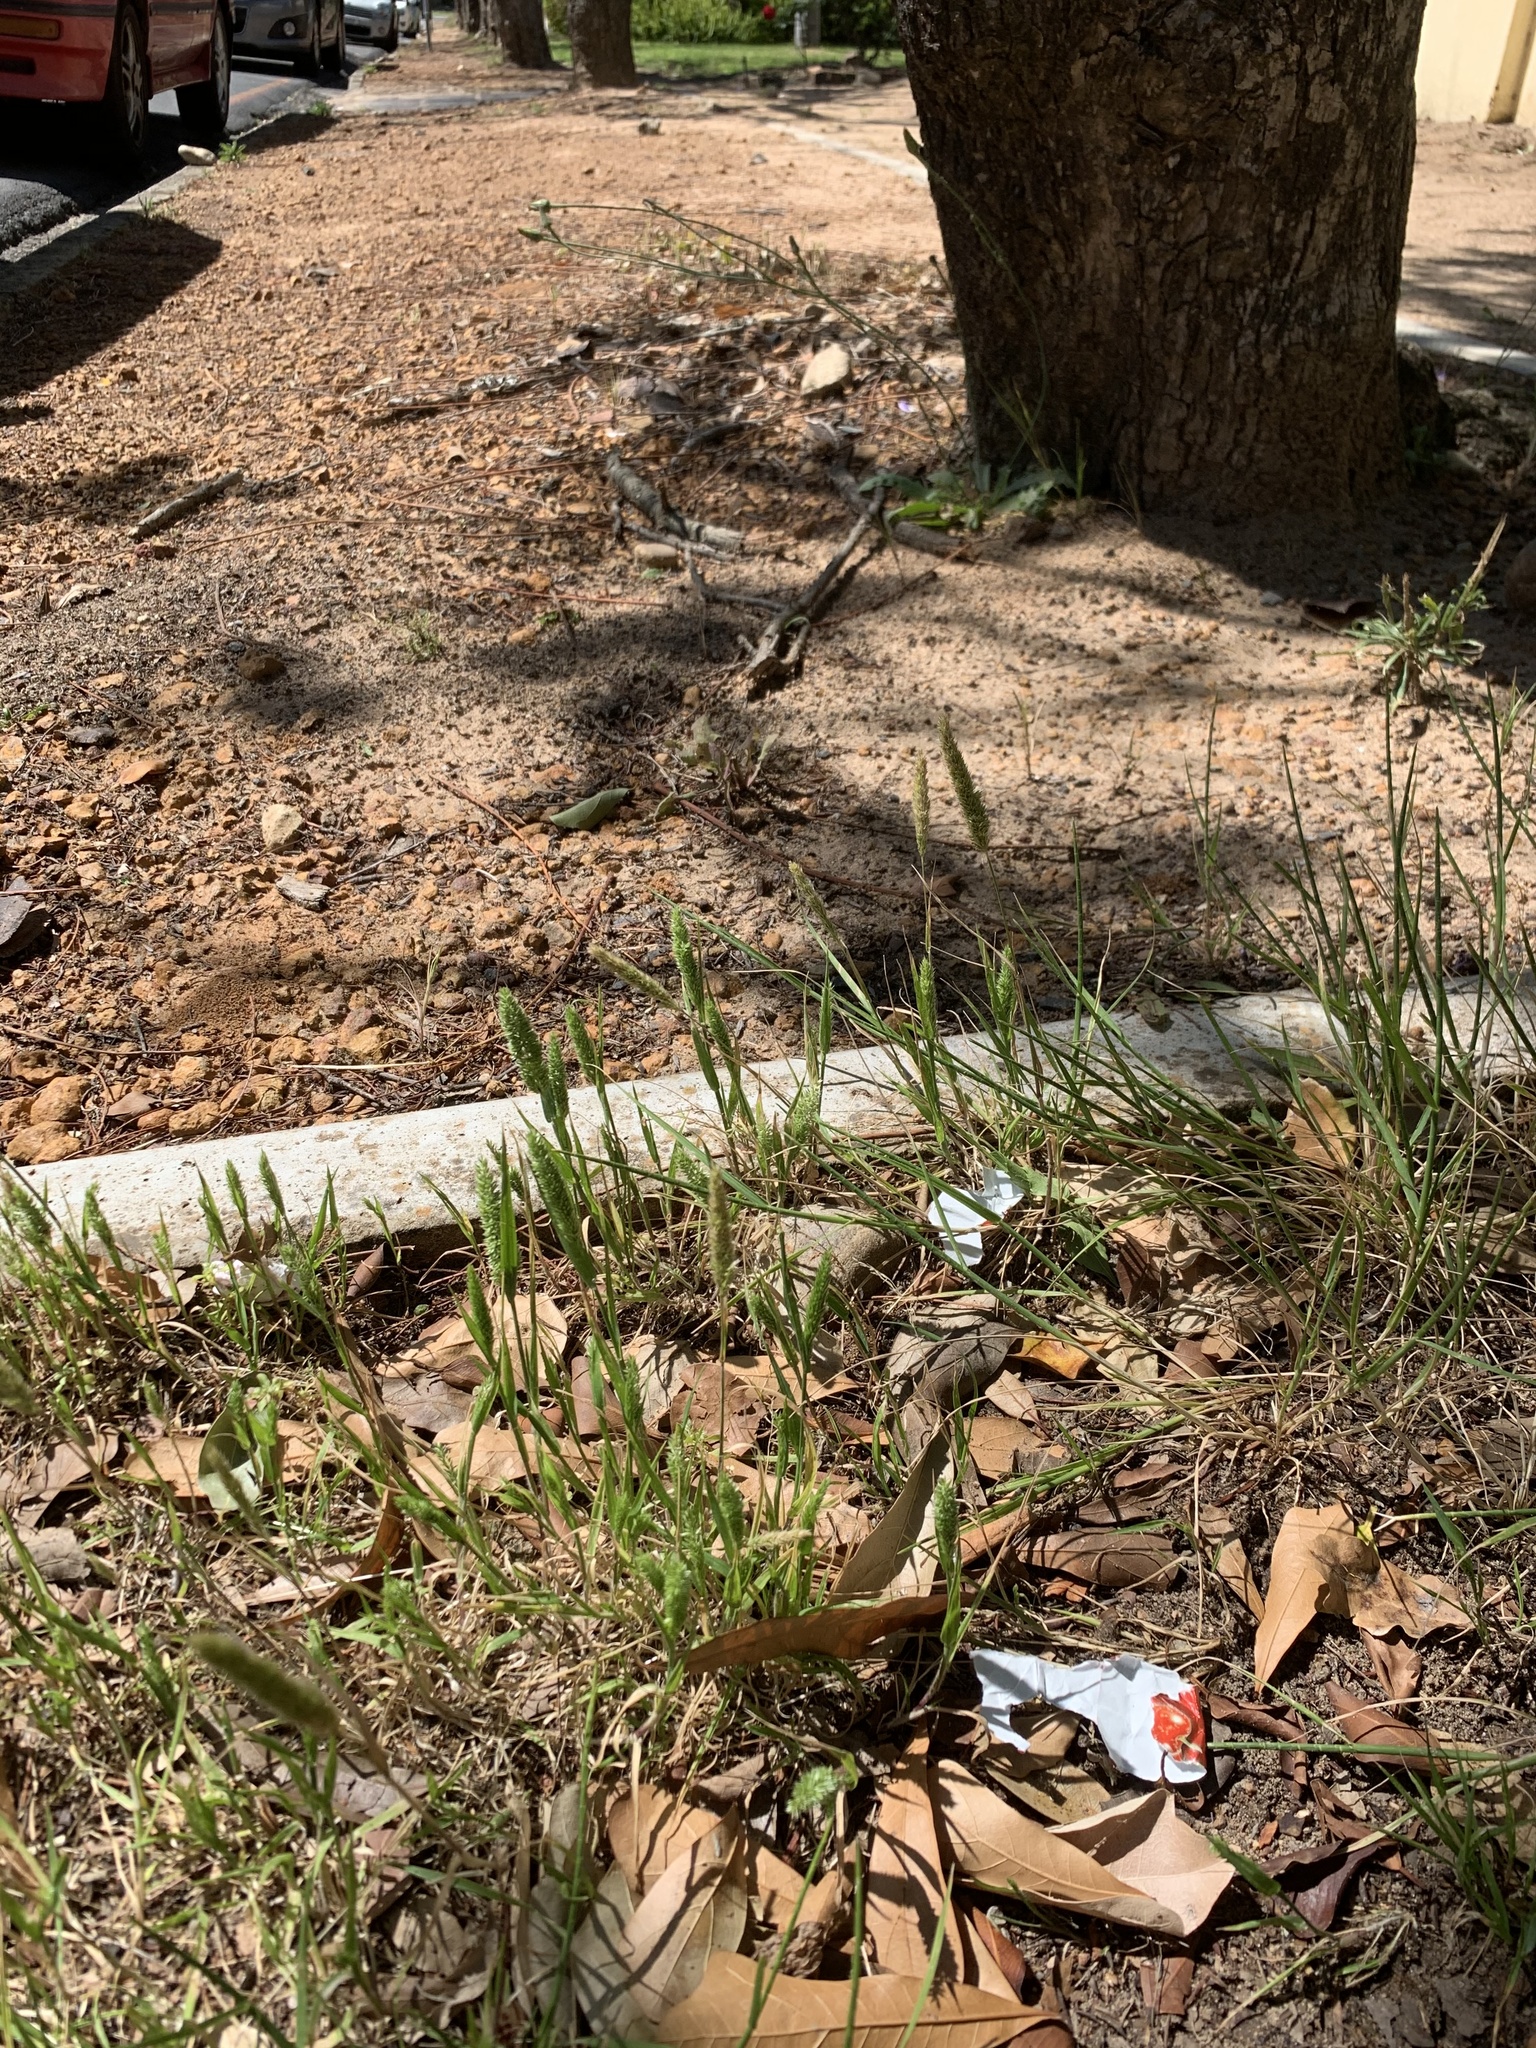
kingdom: Plantae
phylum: Tracheophyta
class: Liliopsida
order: Poales
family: Poaceae
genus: Rostraria
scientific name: Rostraria cristata
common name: Mediterranean hair-grass
